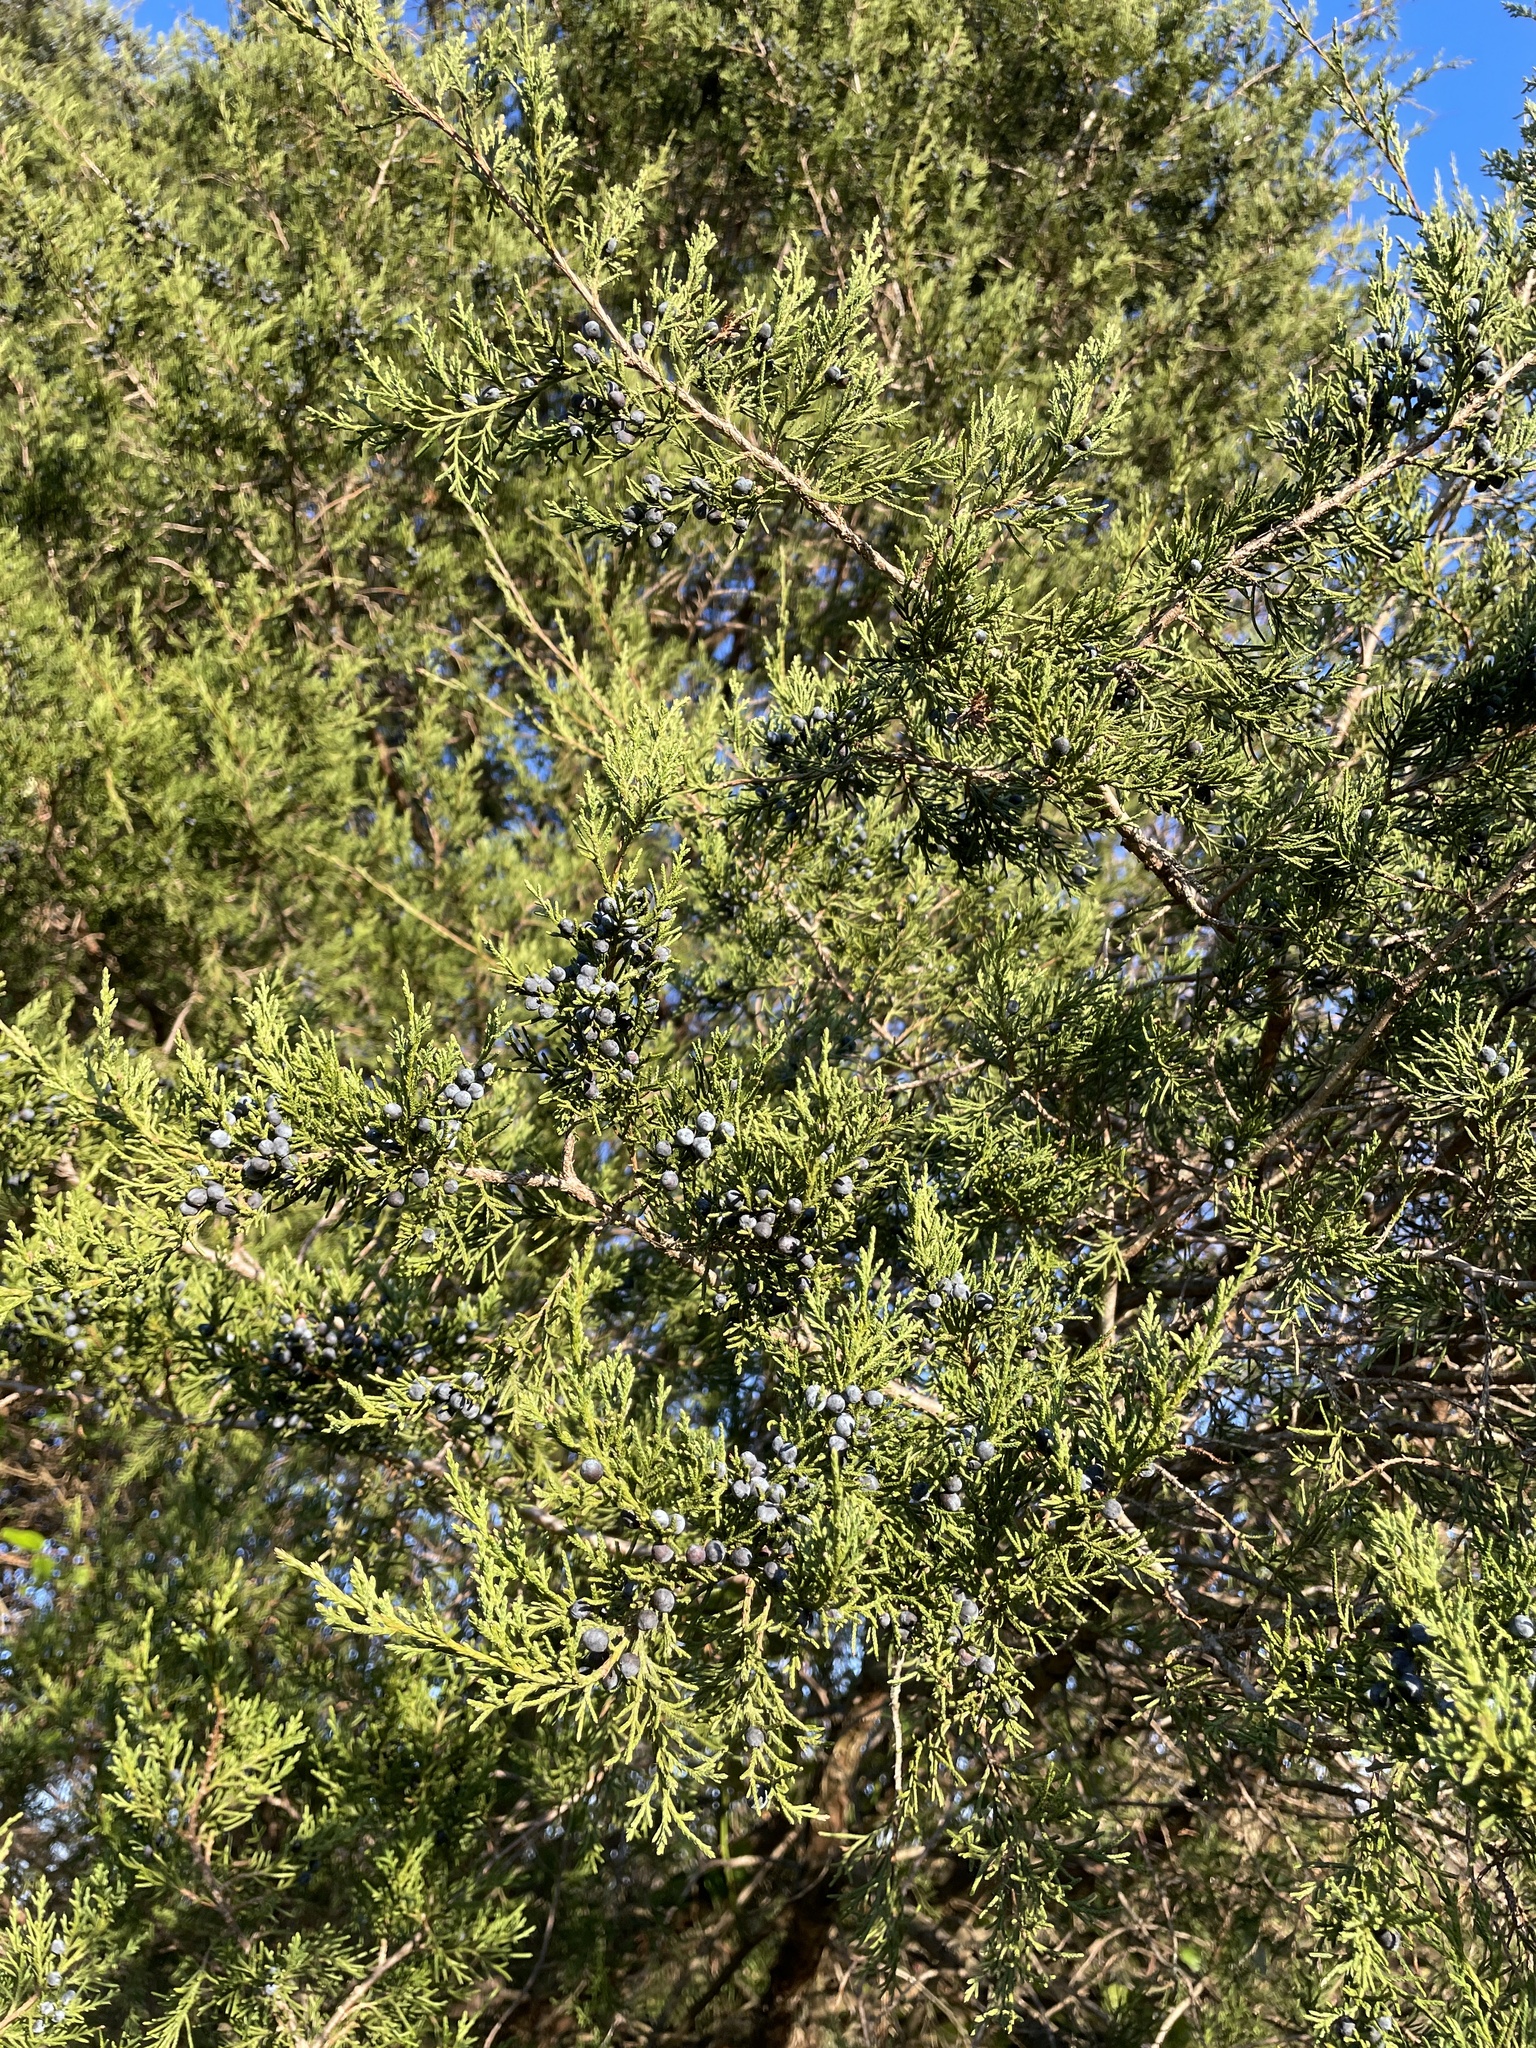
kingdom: Plantae
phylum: Tracheophyta
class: Pinopsida
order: Pinales
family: Cupressaceae
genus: Juniperus
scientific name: Juniperus virginiana
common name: Red juniper
